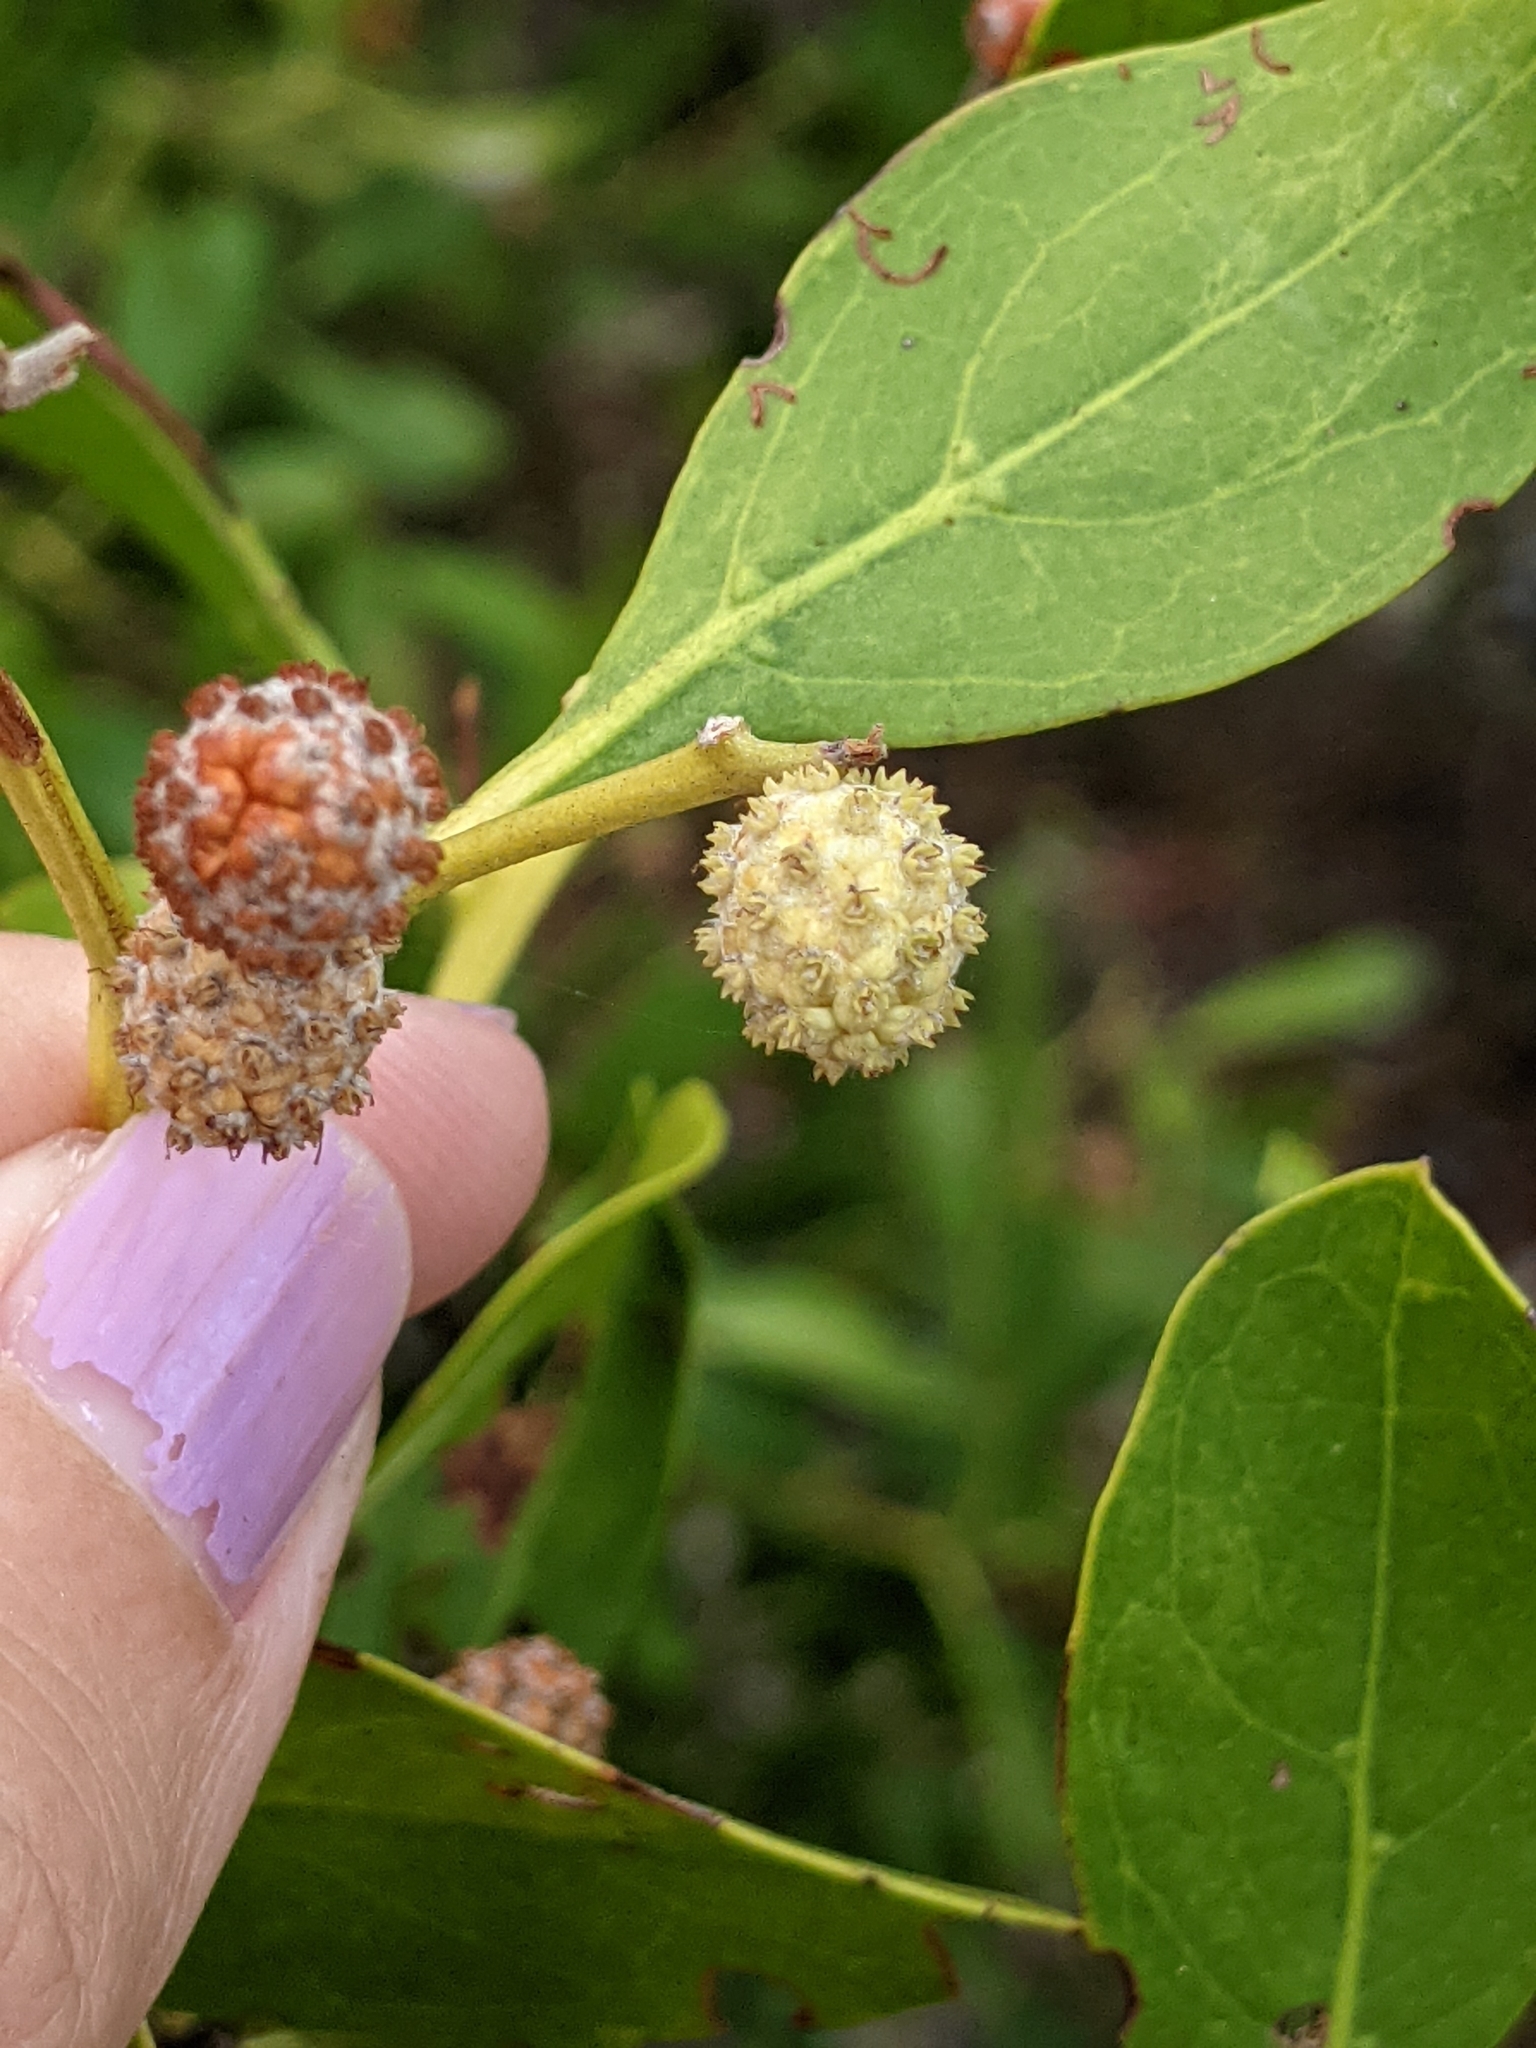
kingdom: Plantae
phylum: Tracheophyta
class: Magnoliopsida
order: Myrtales
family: Combretaceae
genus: Conocarpus
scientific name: Conocarpus erectus
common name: Button mangrove
